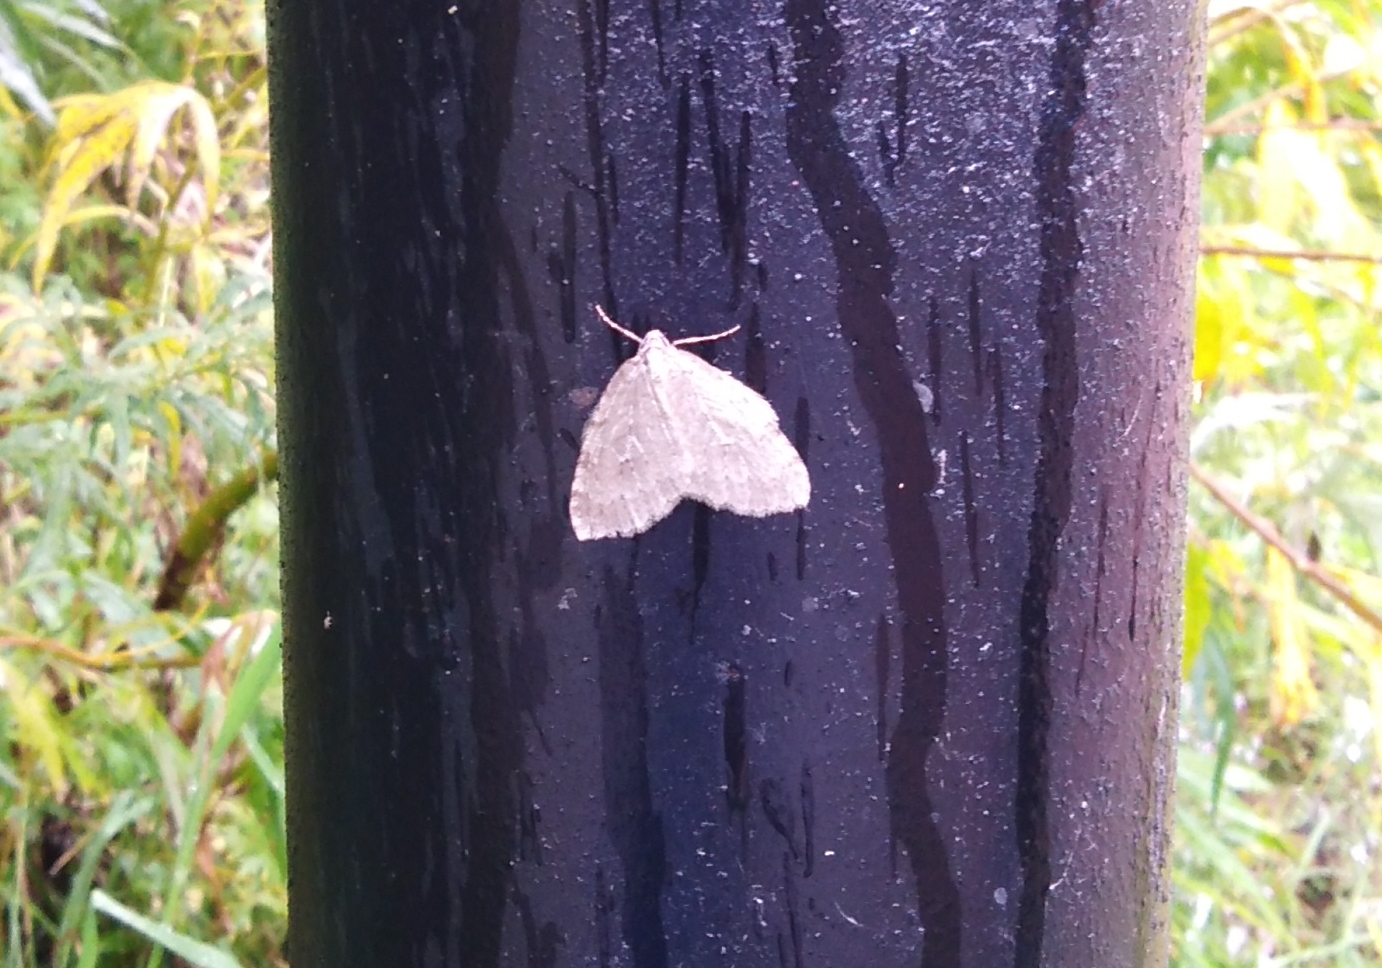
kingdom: Animalia
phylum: Arthropoda
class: Insecta
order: Lepidoptera
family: Geometridae
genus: Epirrita
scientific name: Epirrita autumnata
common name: Autumnal moth
